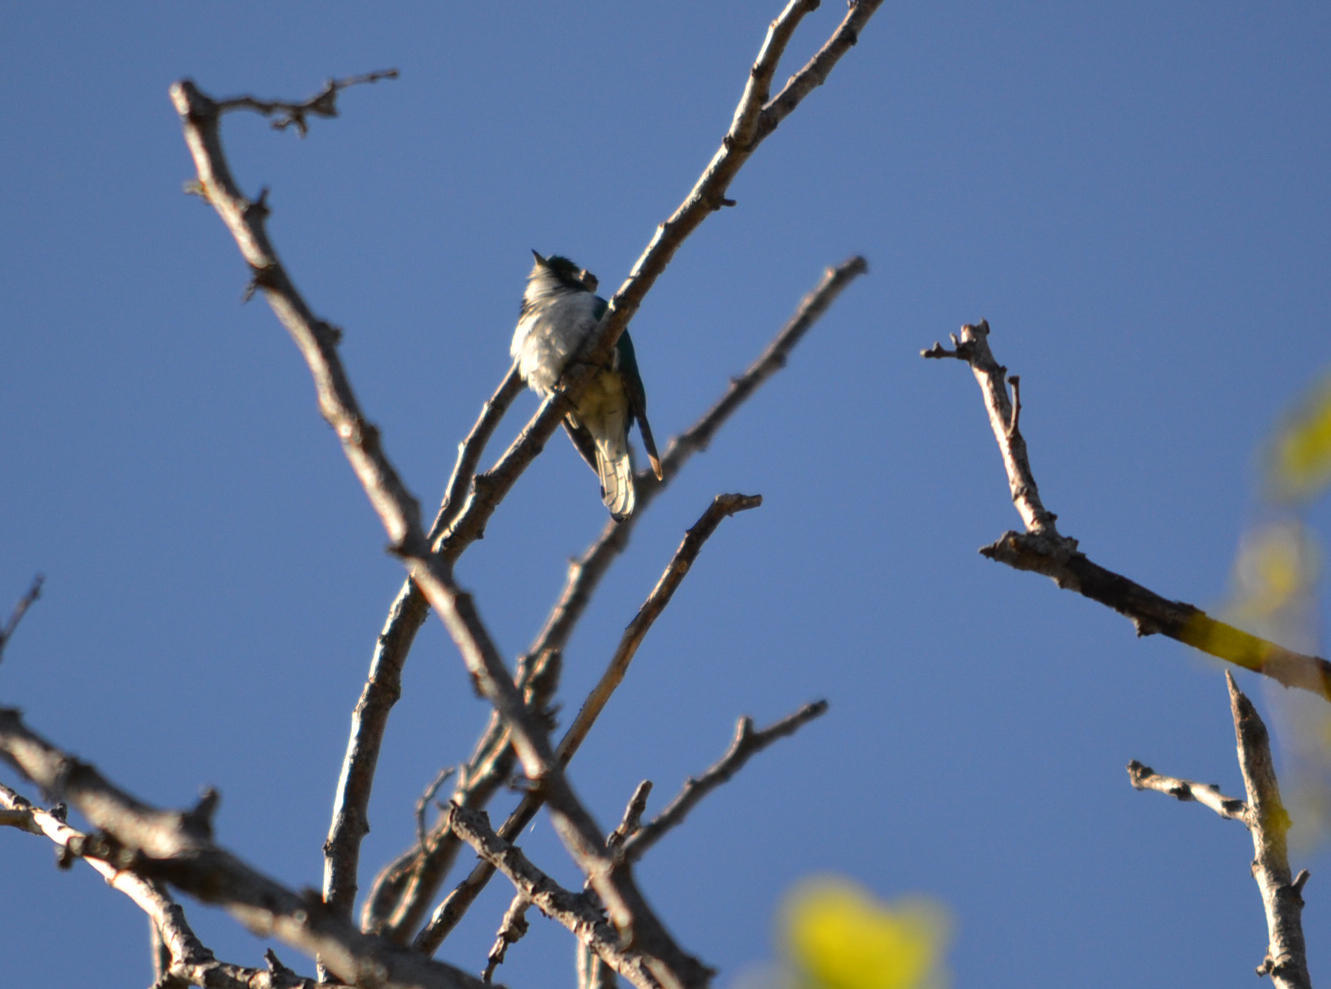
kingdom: Animalia
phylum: Chordata
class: Aves
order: Cuculiformes
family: Cuculidae
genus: Chrysococcyx
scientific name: Chrysococcyx klaas
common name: Klaas's cuckoo
